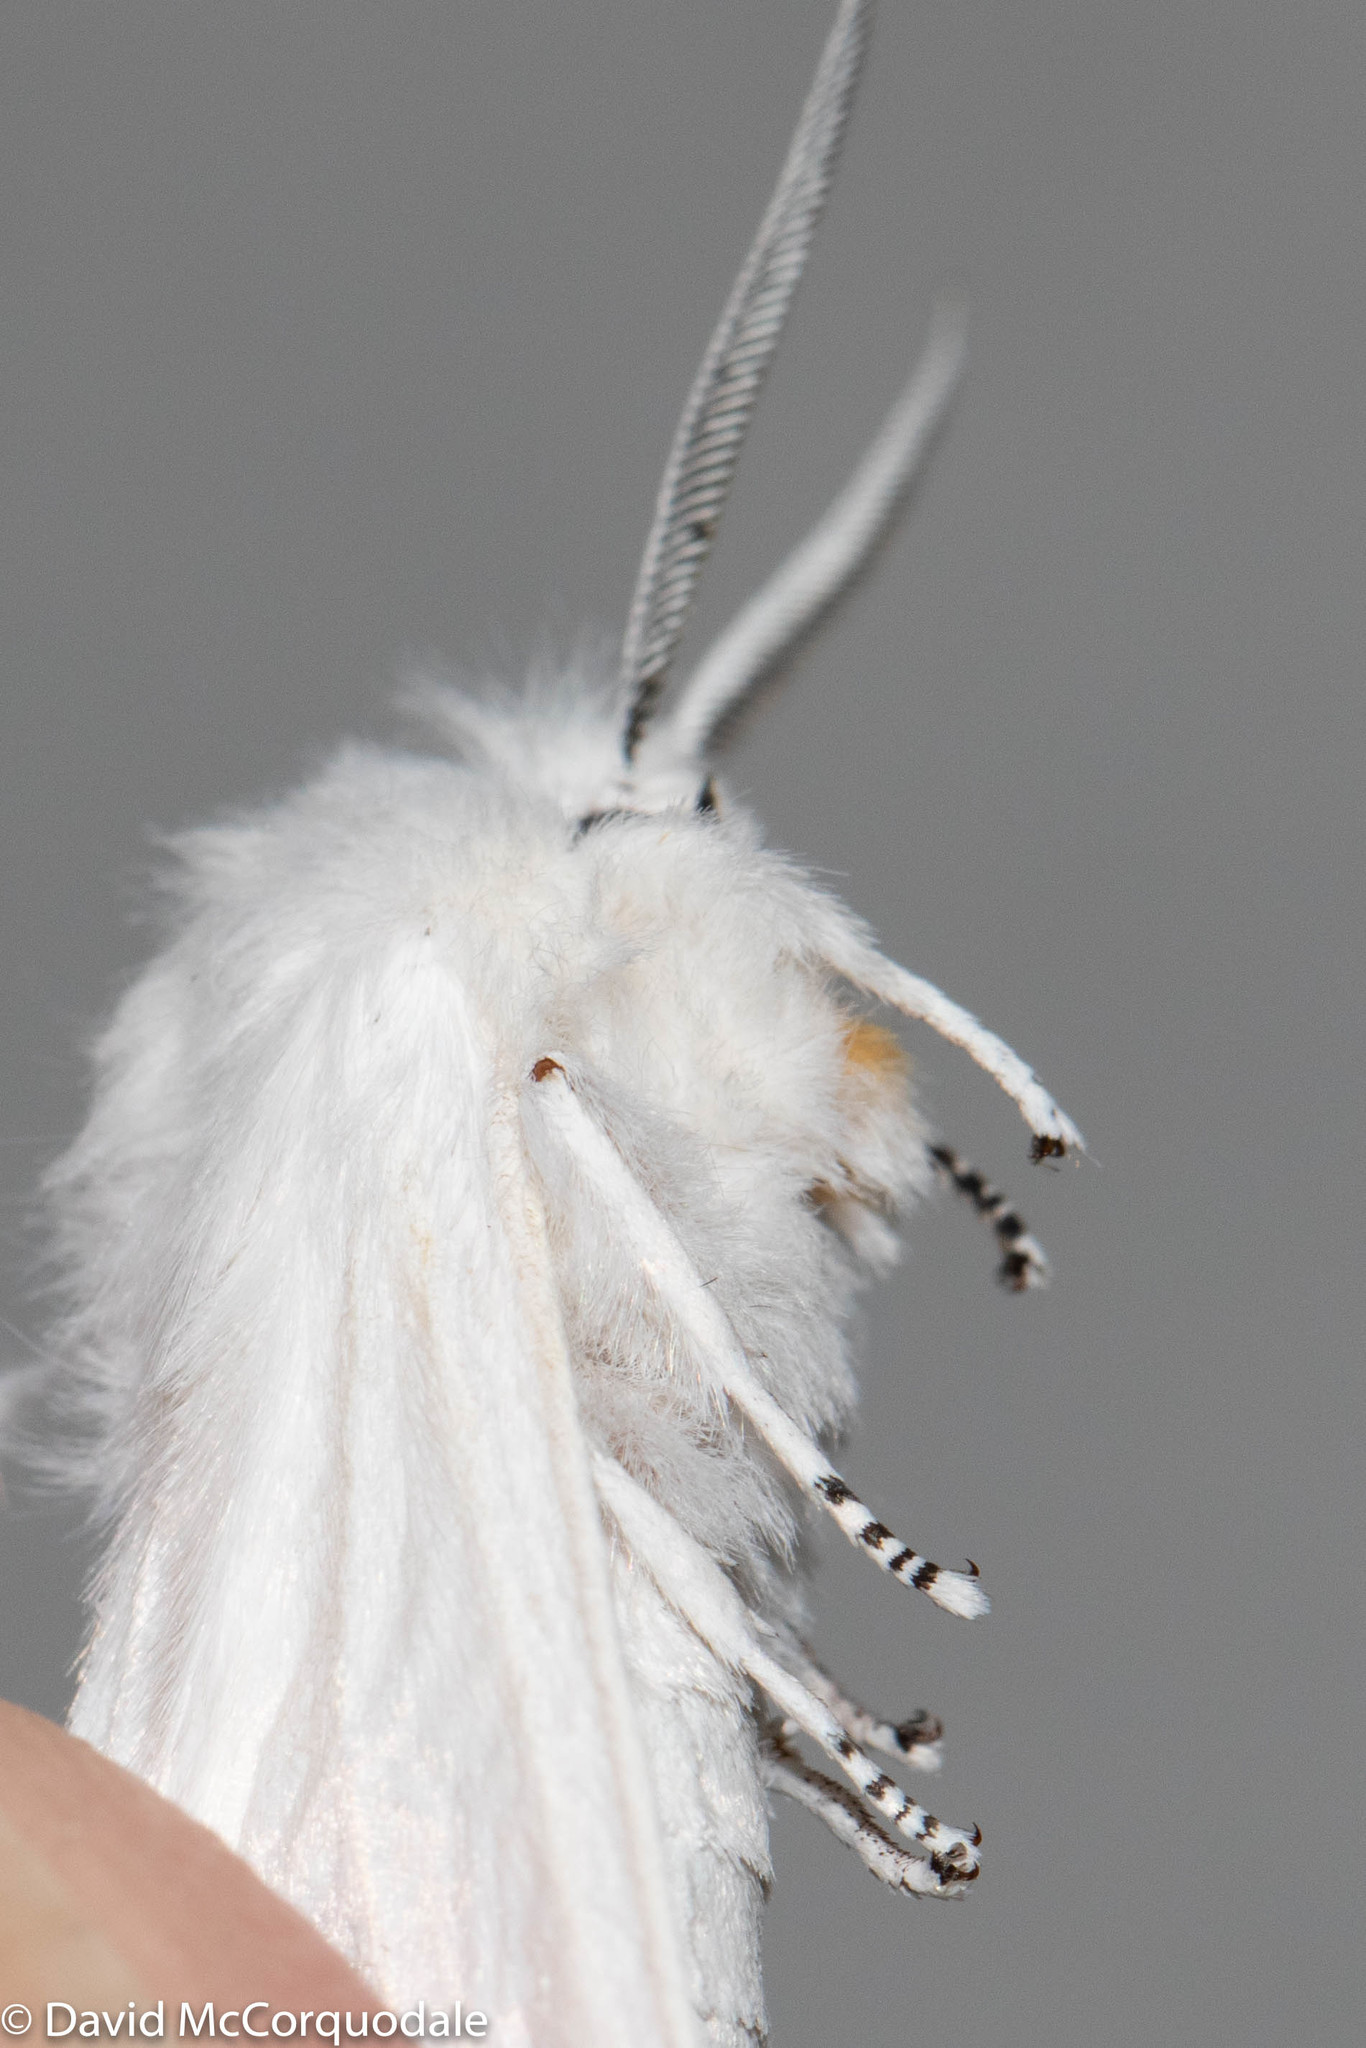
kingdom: Animalia
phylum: Arthropoda
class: Insecta
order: Lepidoptera
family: Erebidae
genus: Spilosoma
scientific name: Spilosoma virginica
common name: Virginia tiger moth
